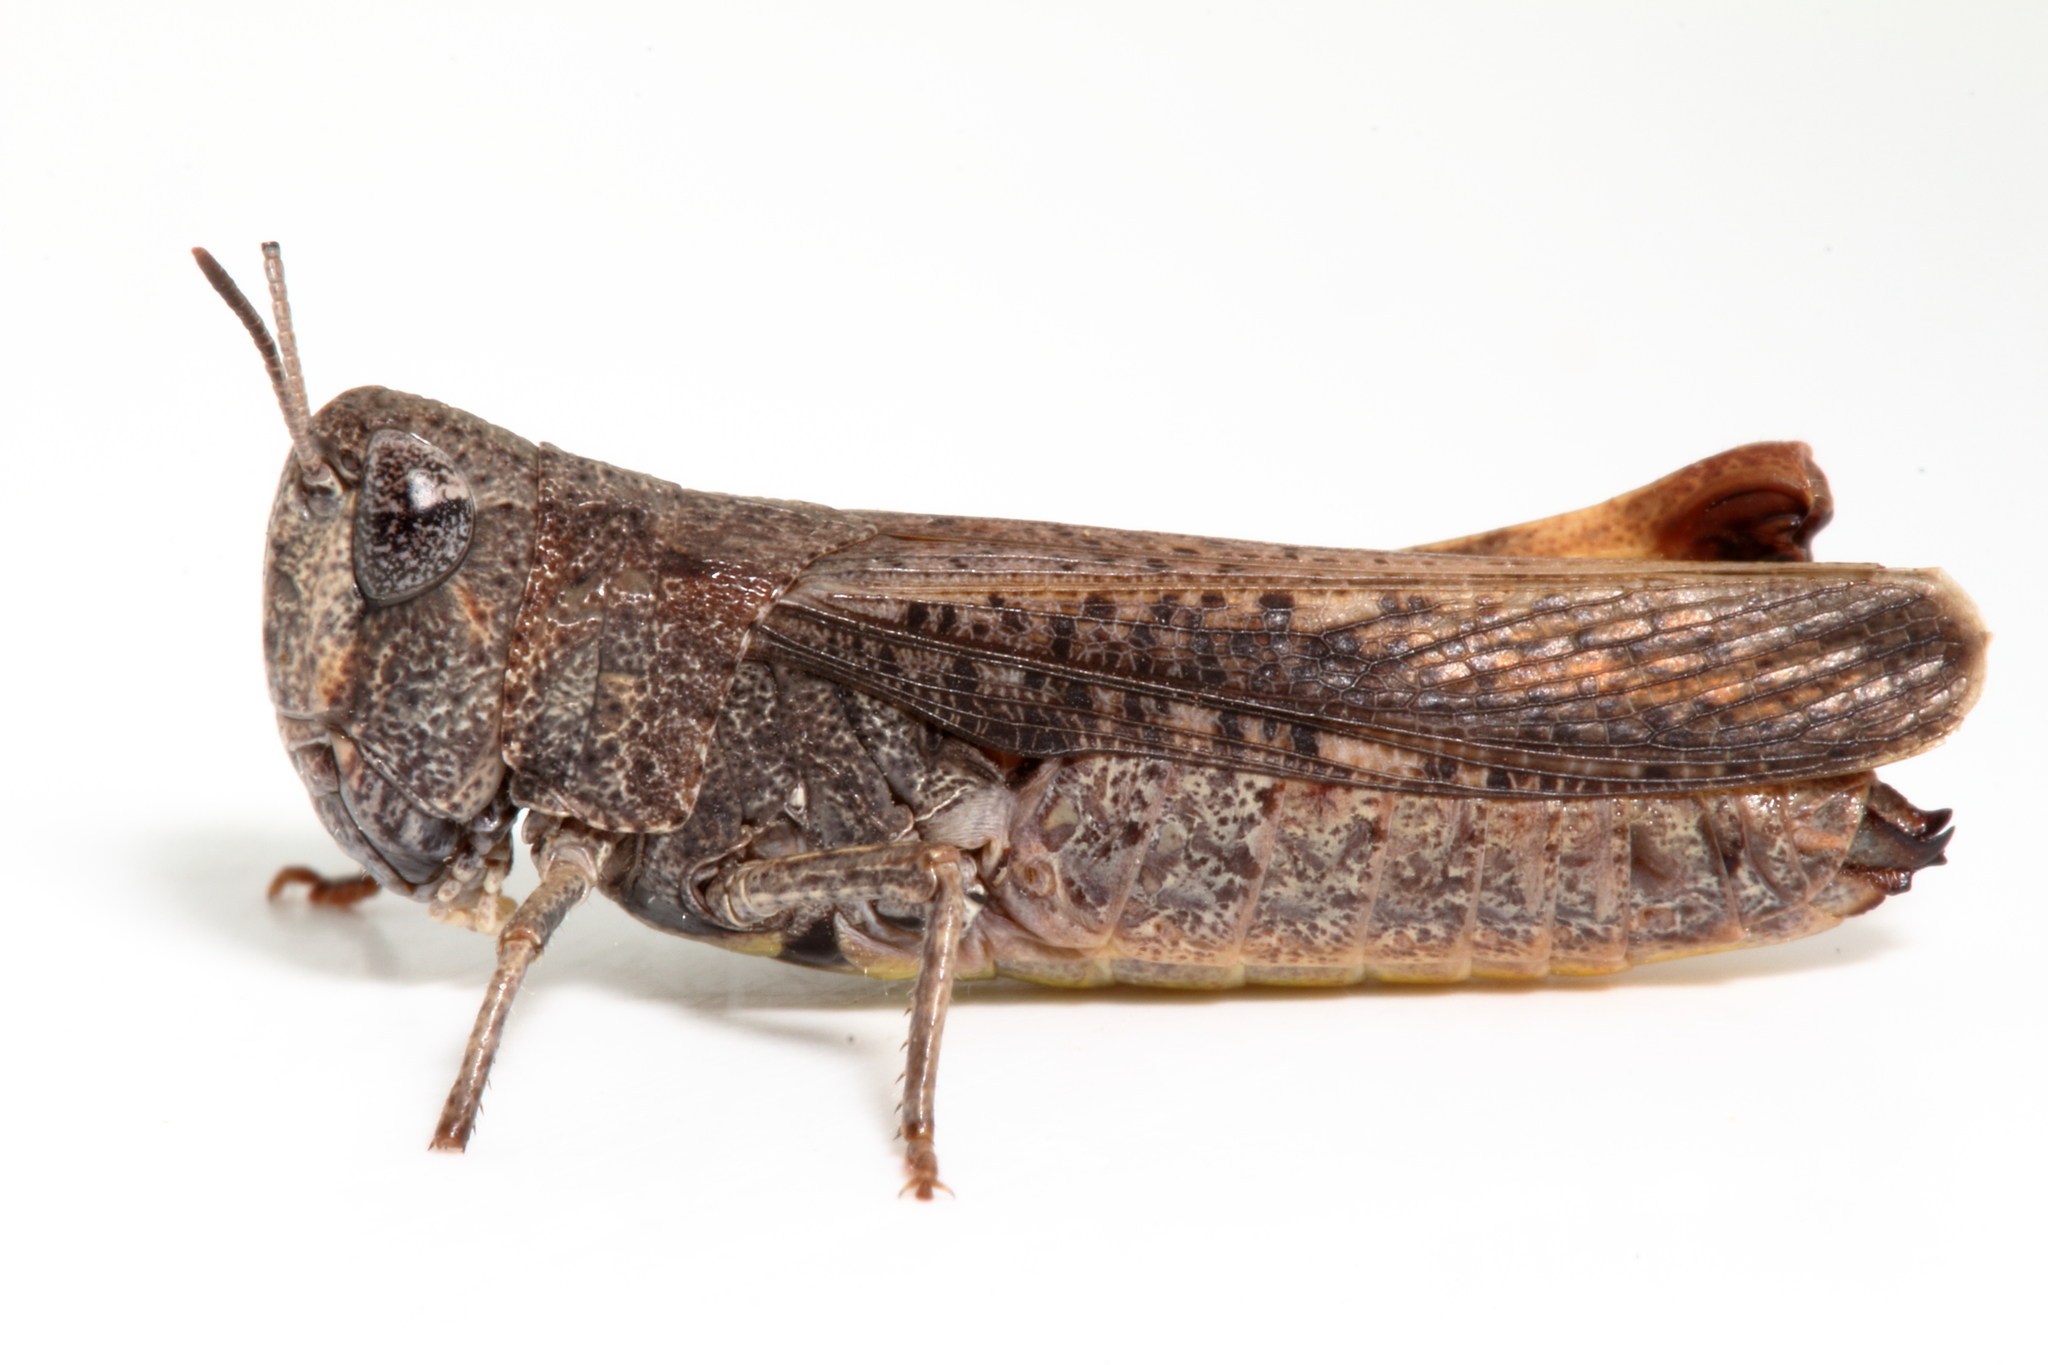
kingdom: Animalia
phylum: Arthropoda
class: Insecta
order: Orthoptera
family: Acrididae
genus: Cryptobothrus
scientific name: Cryptobothrus chrysophorus
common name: Golden bandwing
